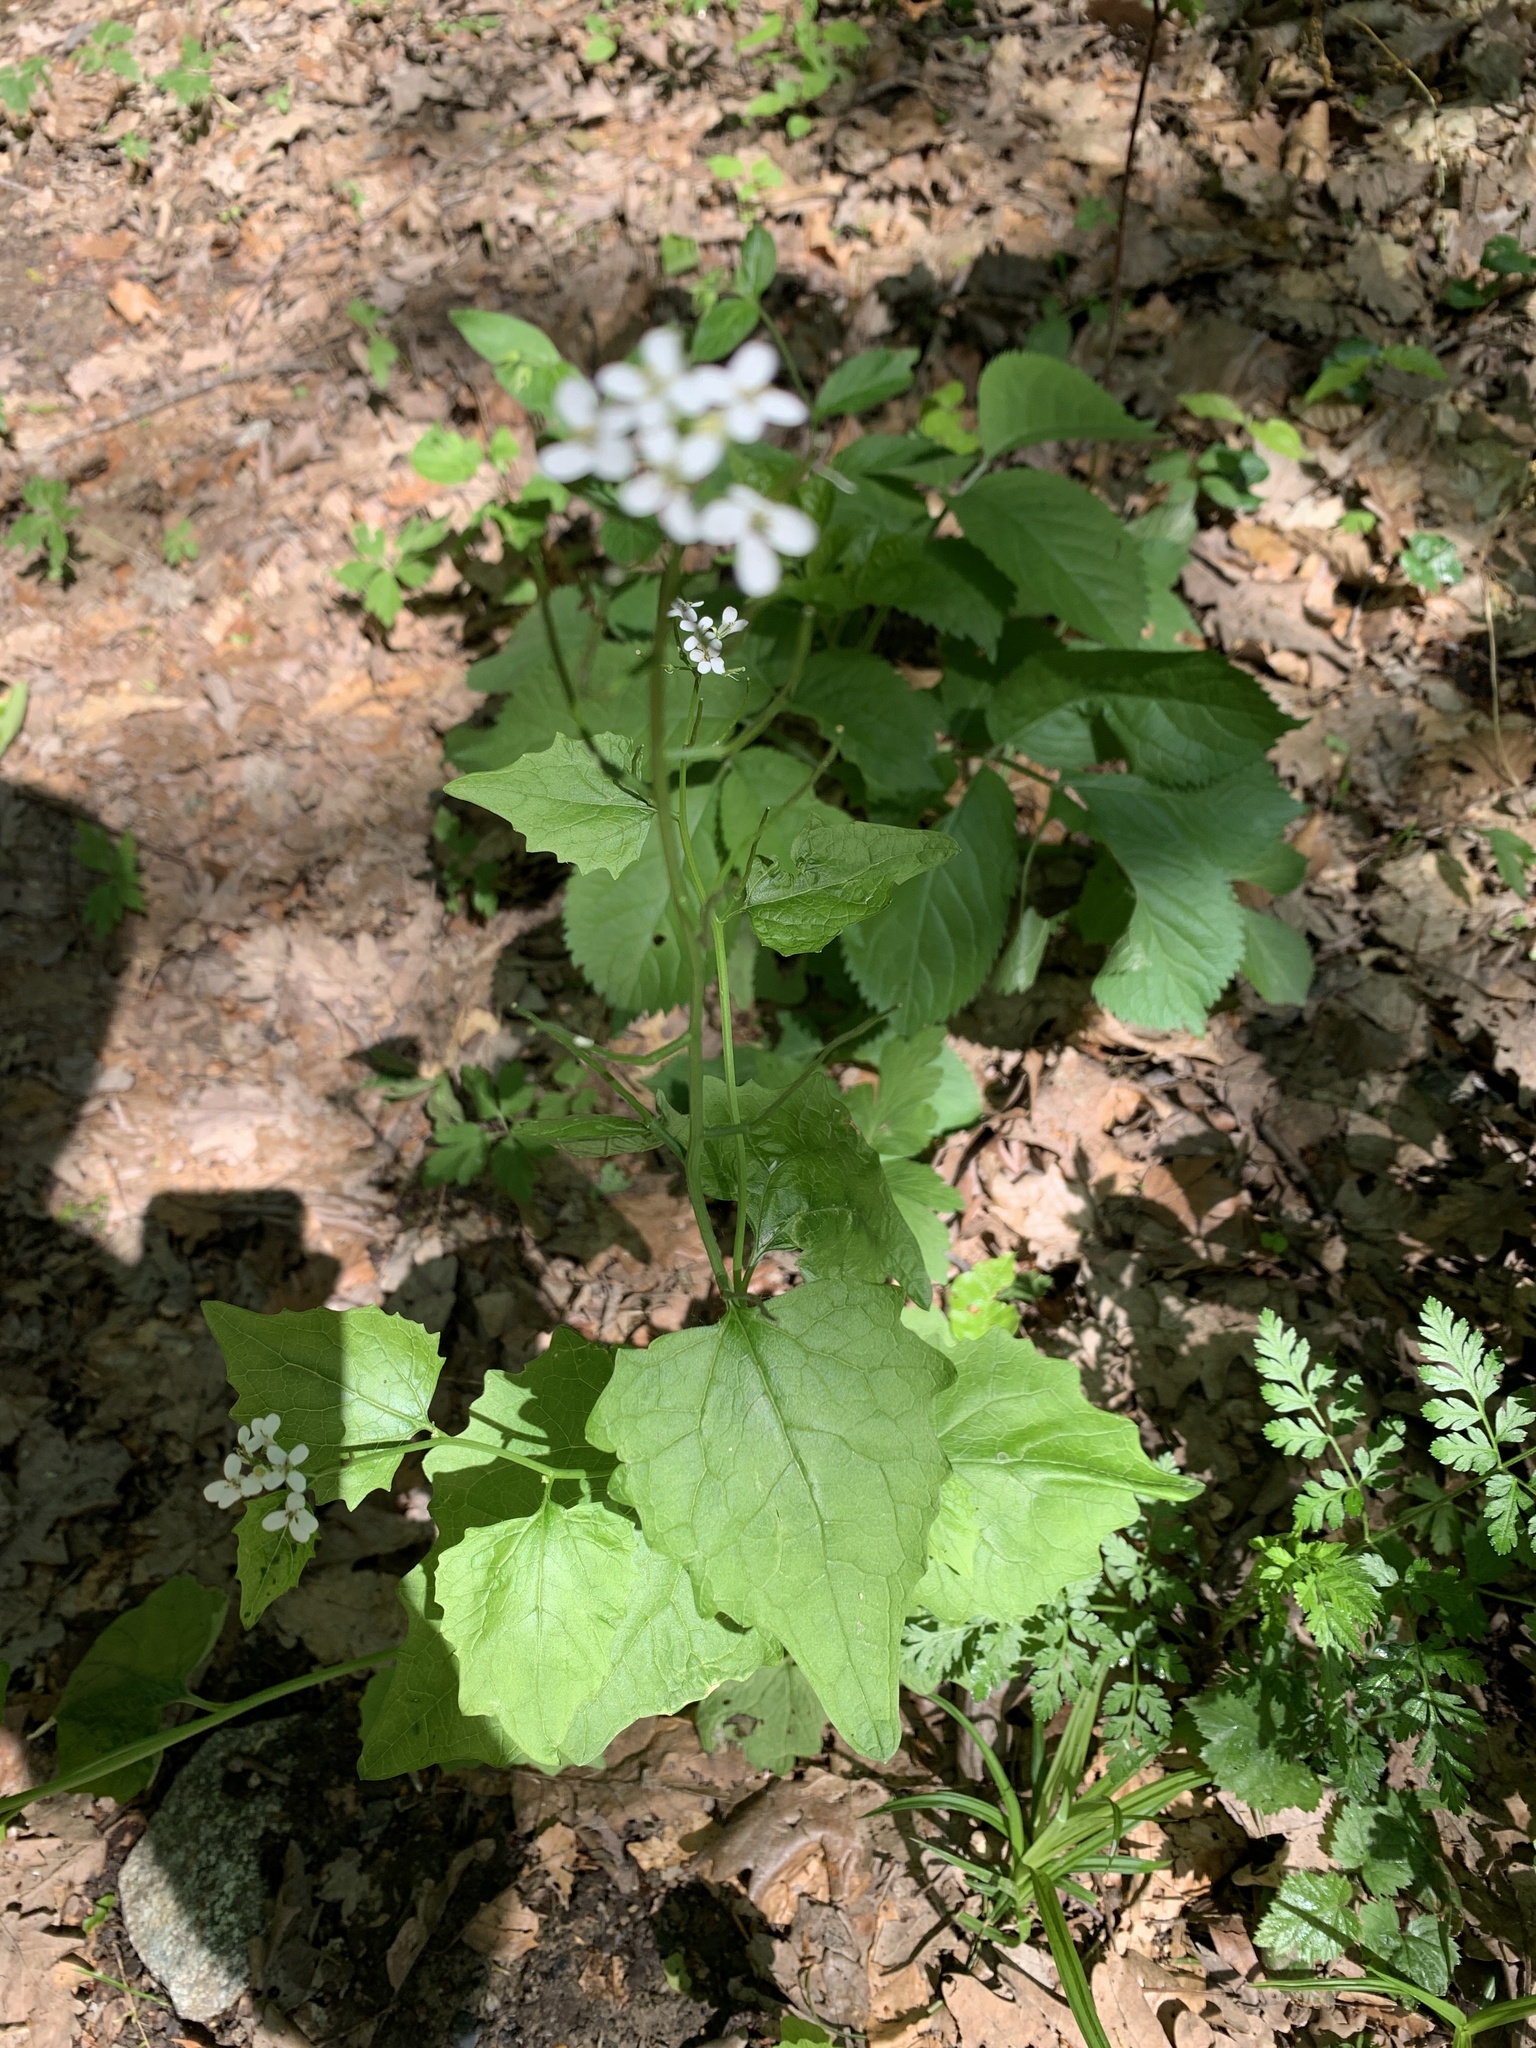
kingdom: Plantae
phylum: Tracheophyta
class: Magnoliopsida
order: Brassicales
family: Brassicaceae
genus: Alliaria
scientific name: Alliaria petiolata
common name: Garlic mustard
